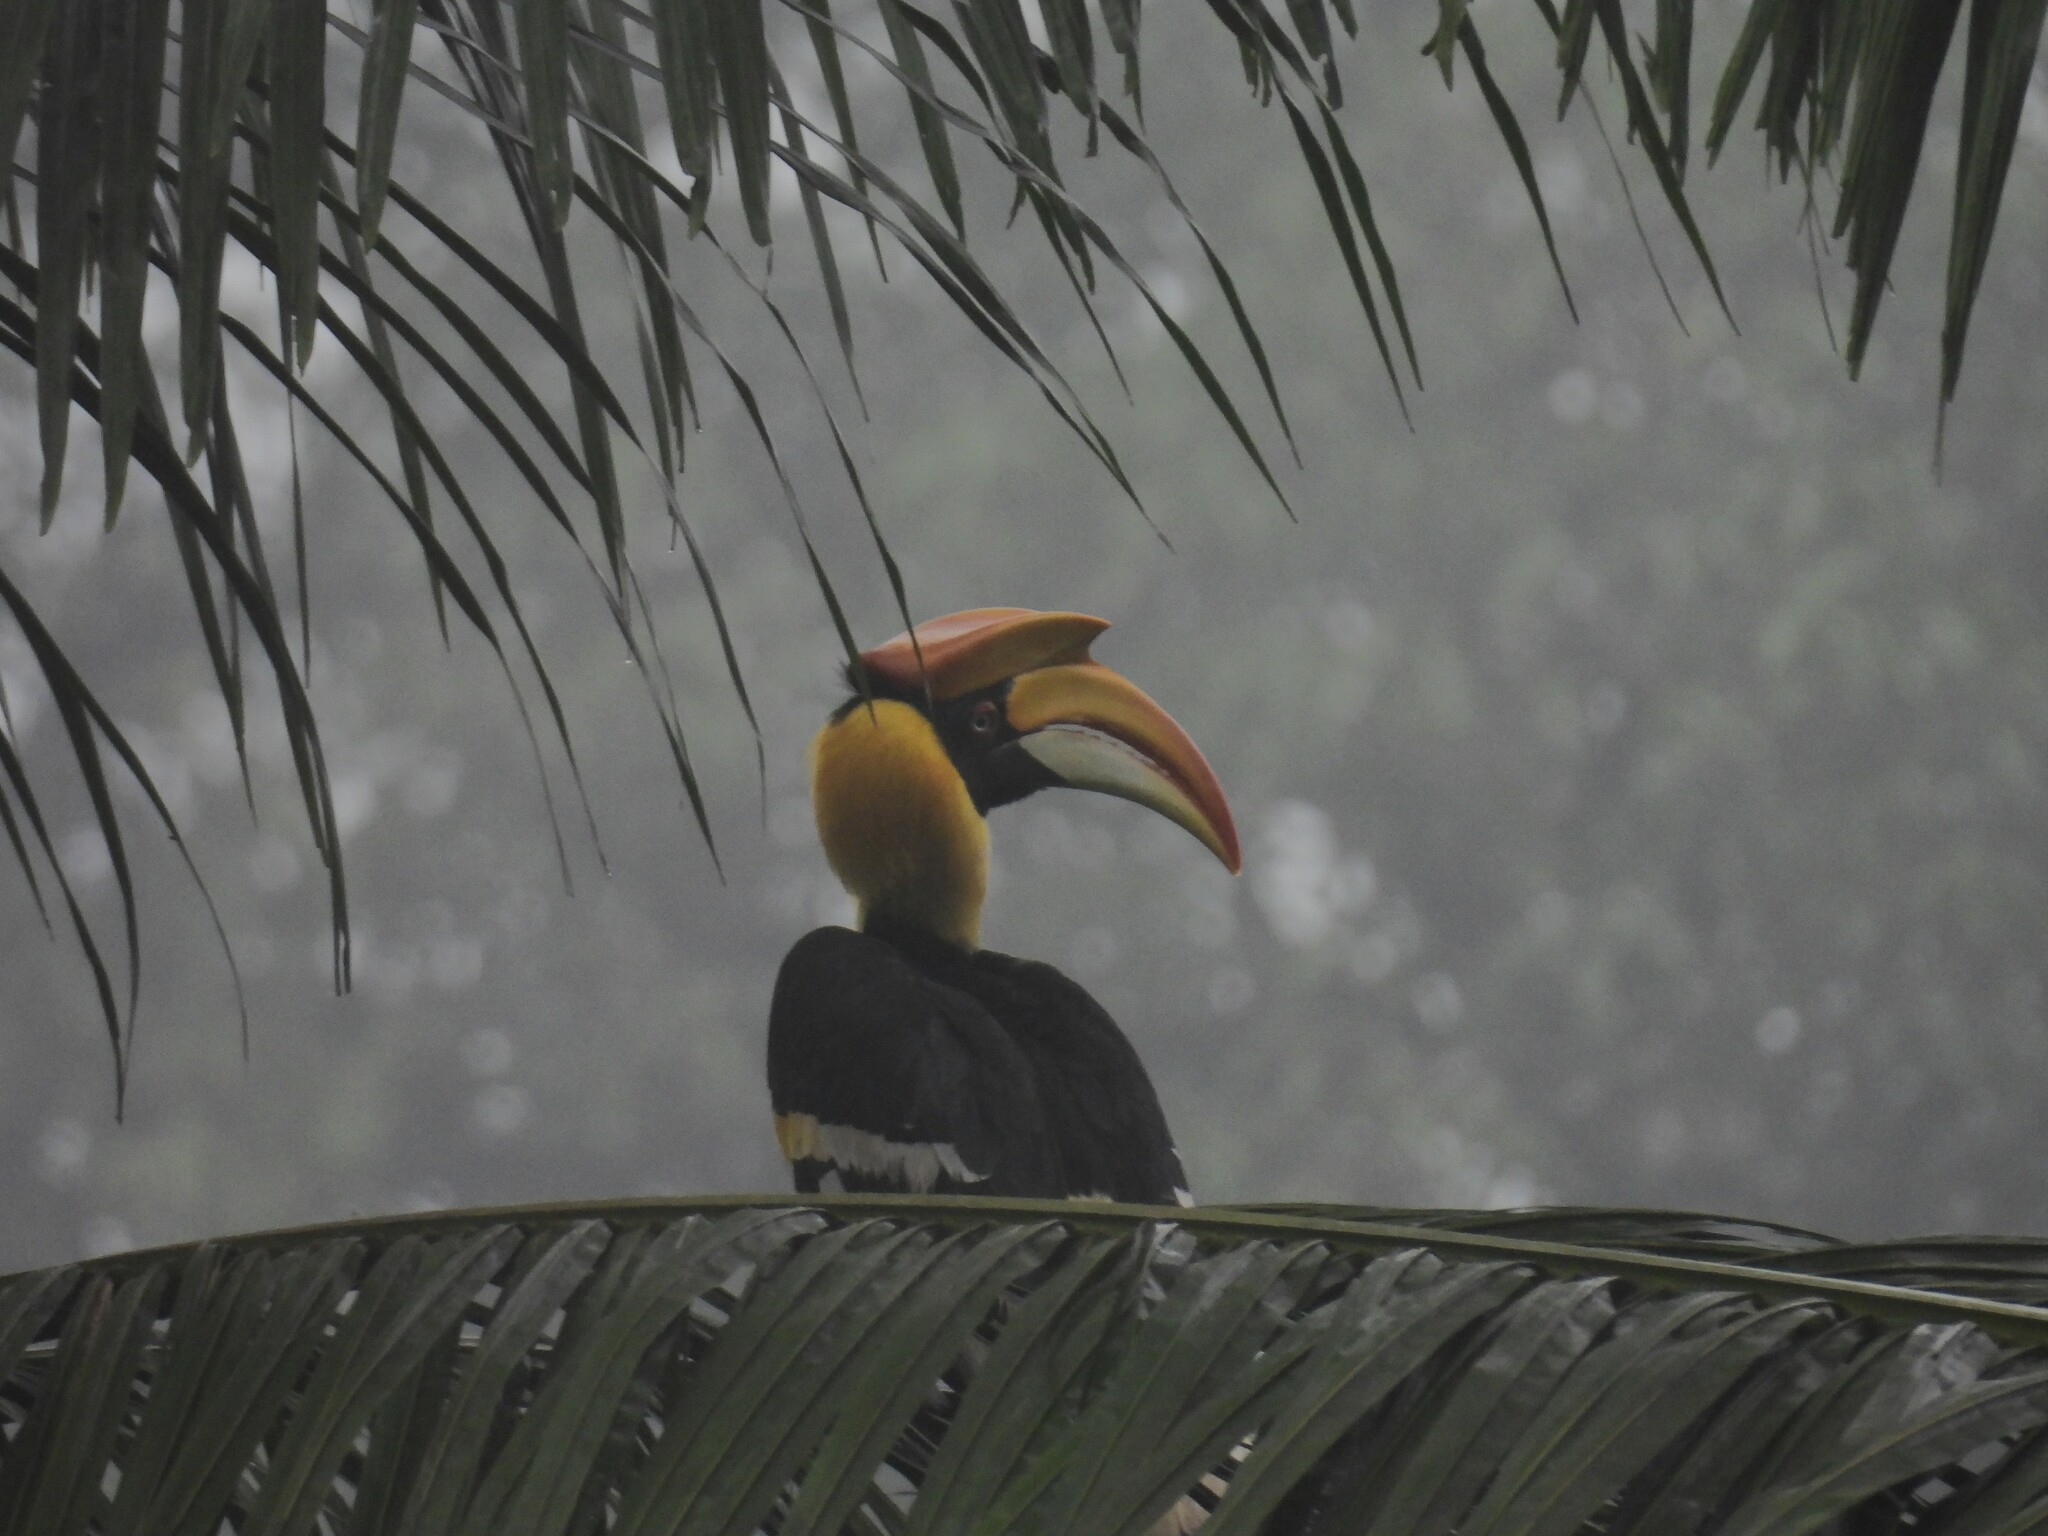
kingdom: Animalia
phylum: Chordata
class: Aves
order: Bucerotiformes
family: Bucerotidae
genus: Buceros
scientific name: Buceros bicornis
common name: Great hornbill
